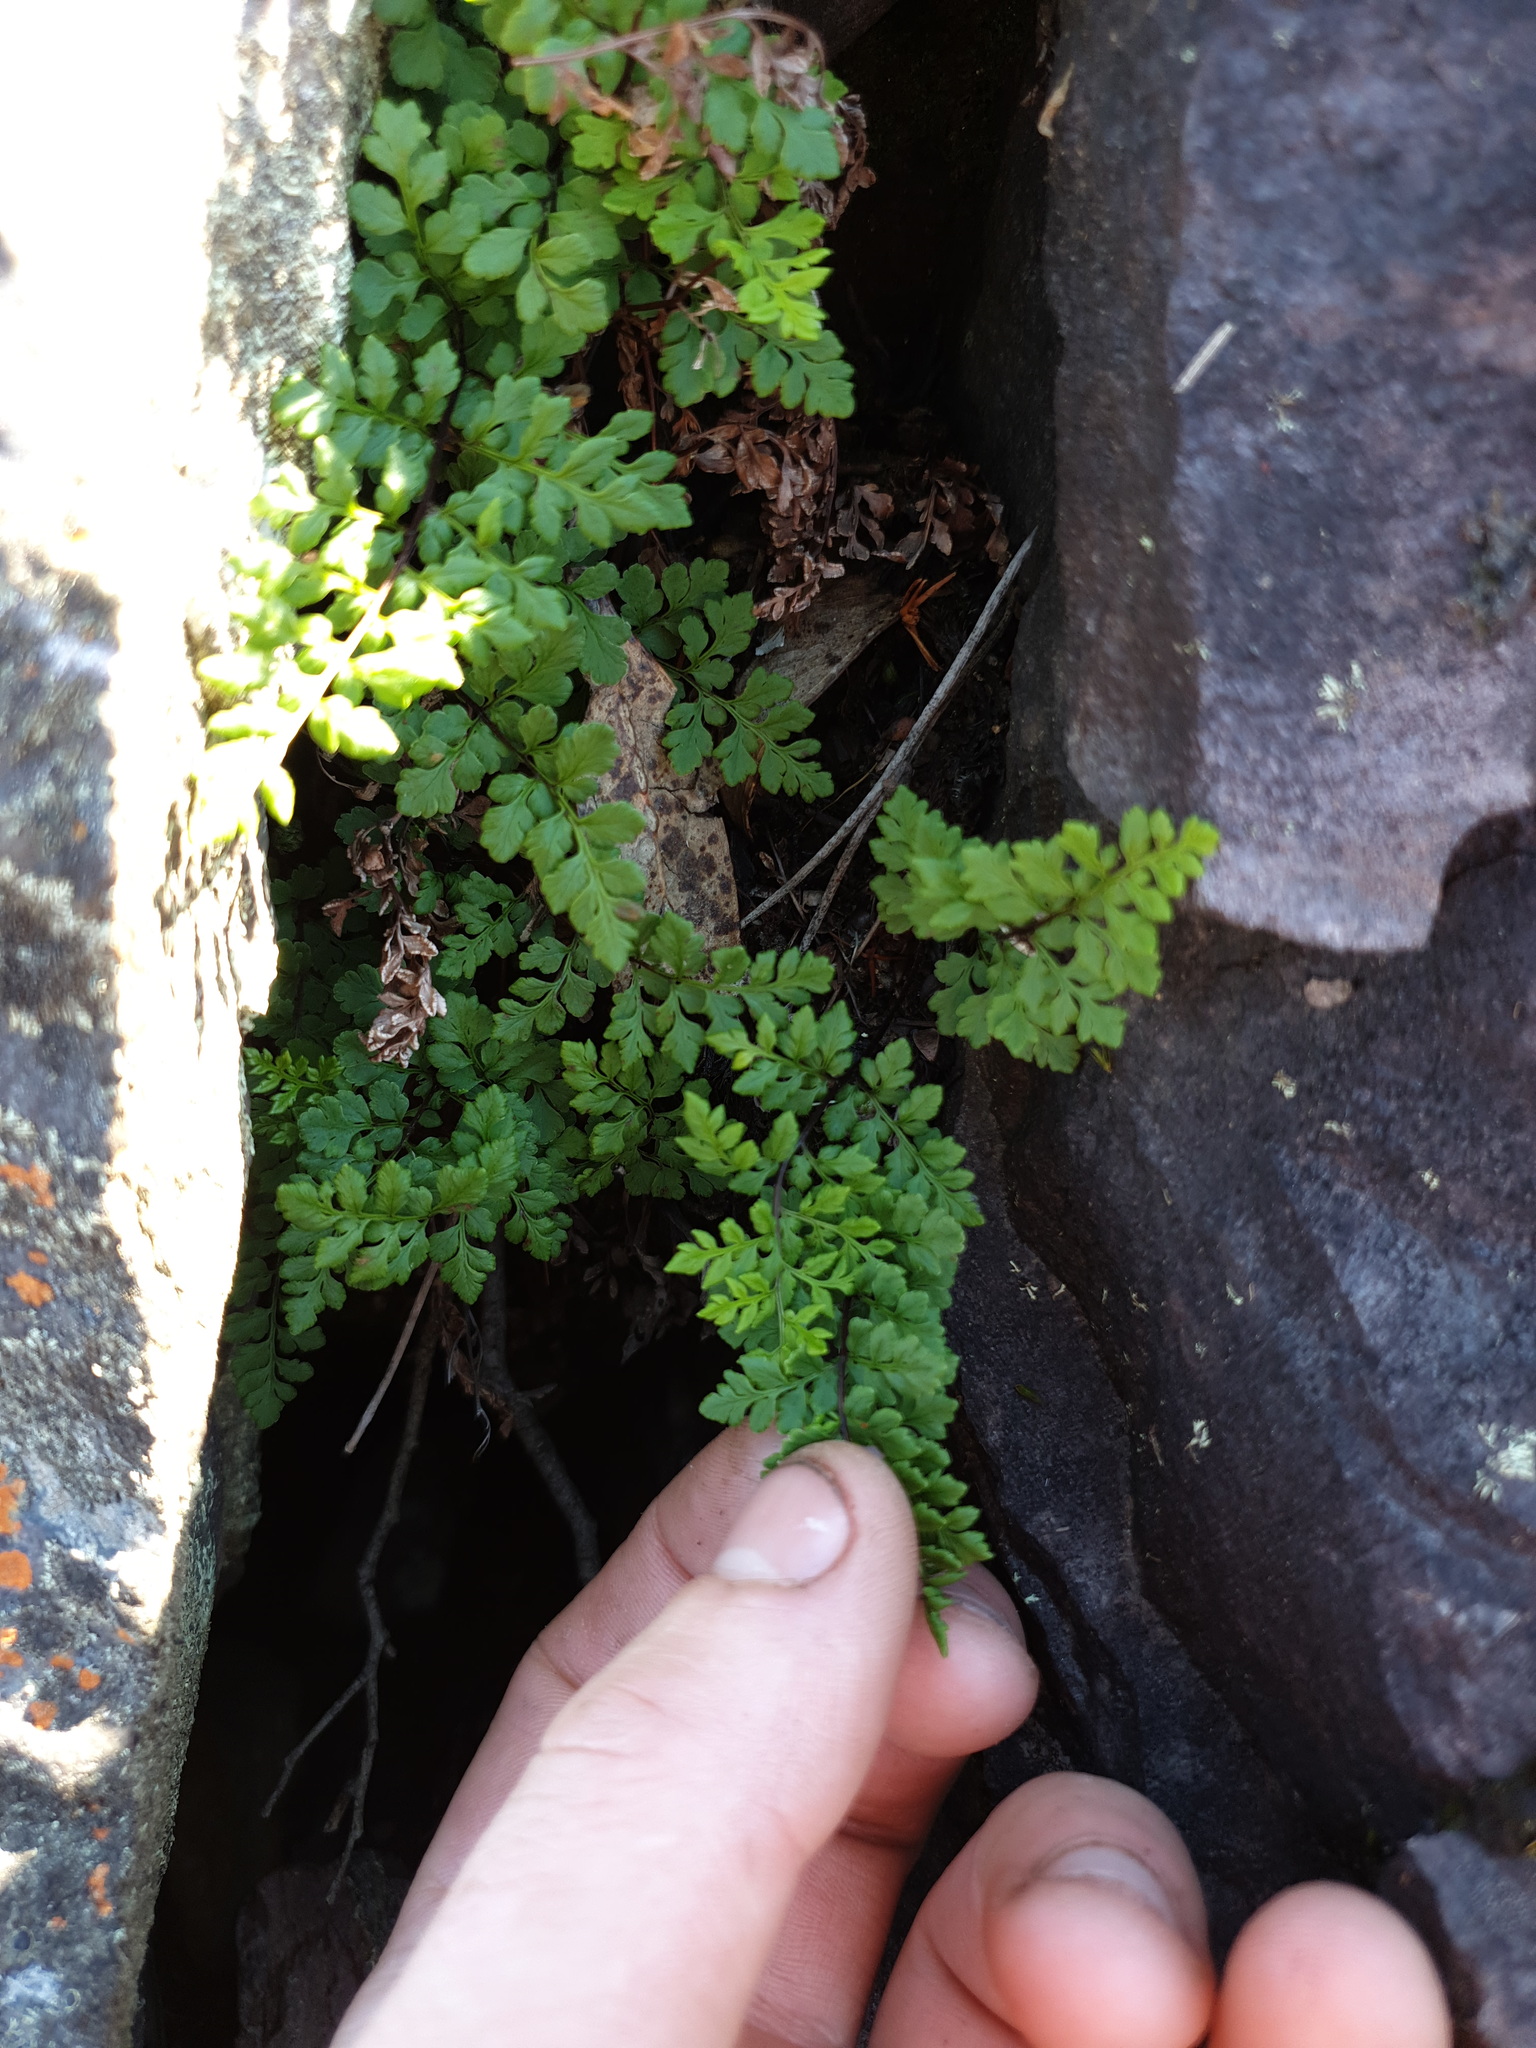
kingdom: Plantae
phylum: Tracheophyta
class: Polypodiopsida
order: Polypodiales
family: Pteridaceae
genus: Cheilanthes
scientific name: Cheilanthes austrotenuifolia
